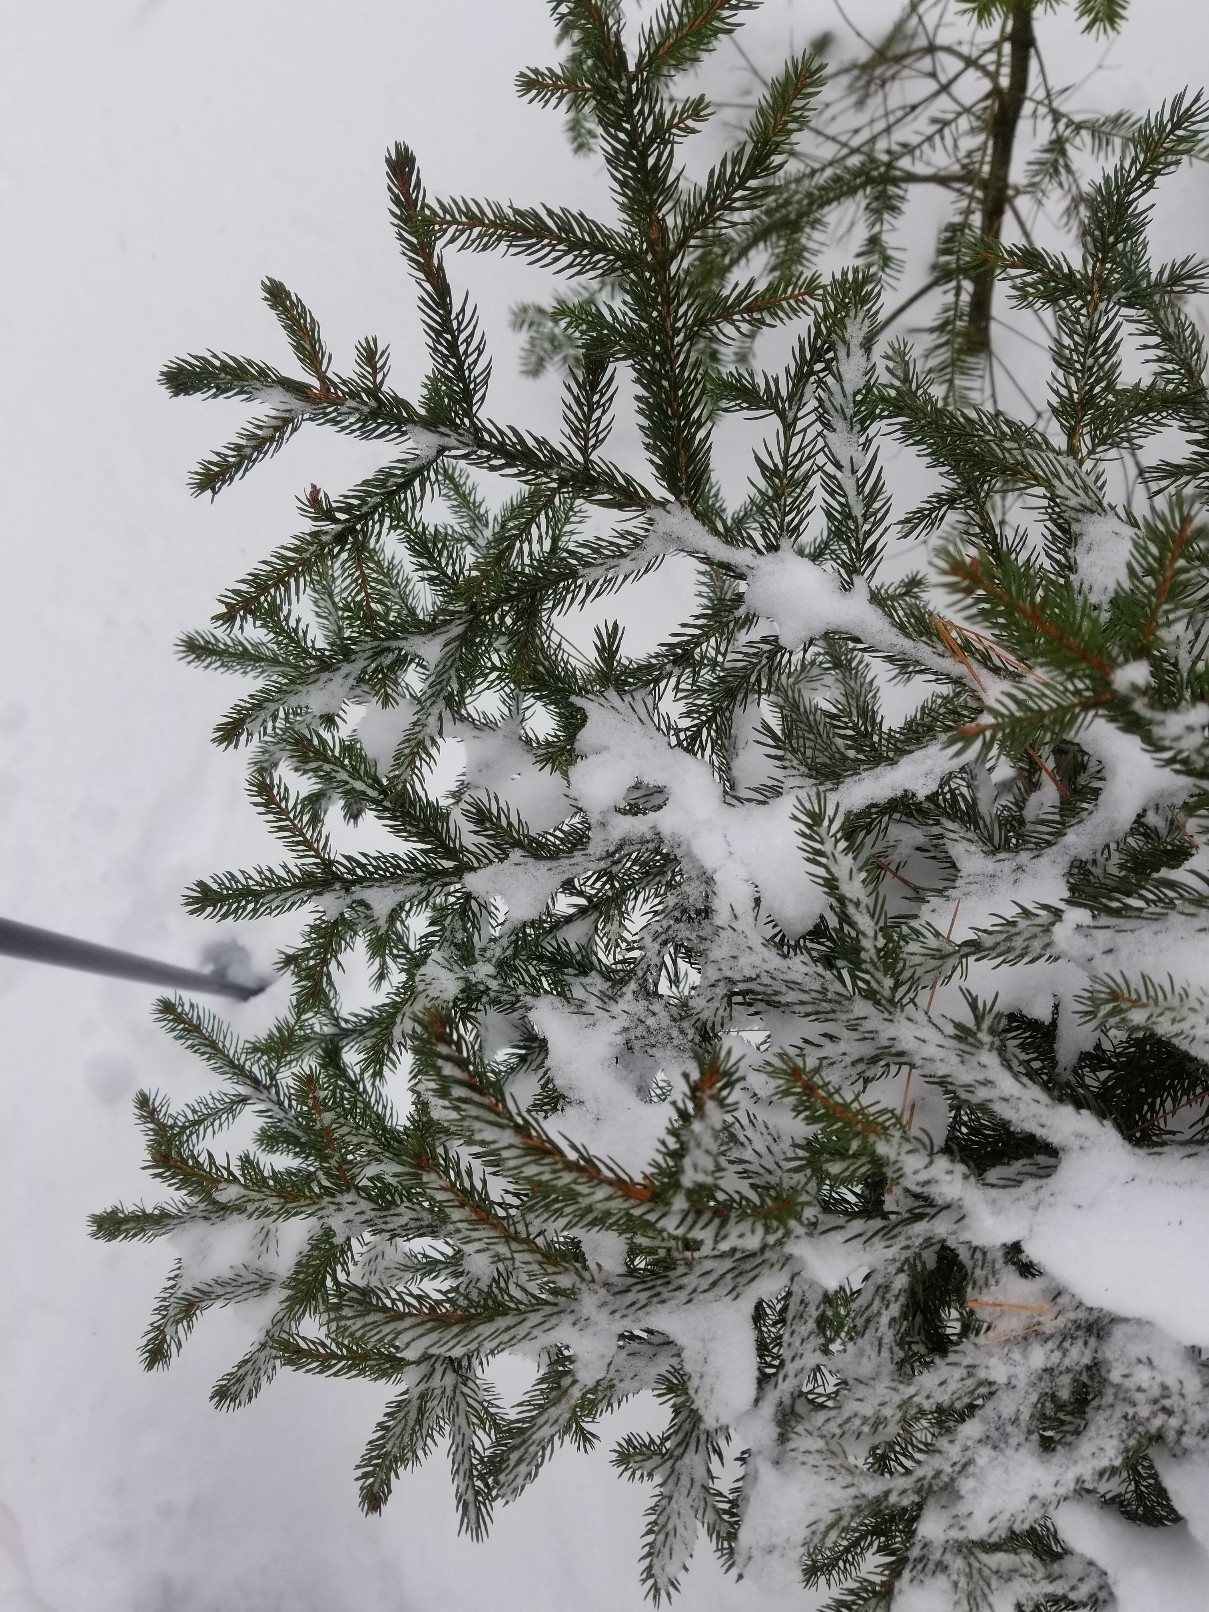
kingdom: Plantae
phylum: Tracheophyta
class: Pinopsida
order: Pinales
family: Pinaceae
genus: Picea
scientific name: Picea rubens
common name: Red spruce
